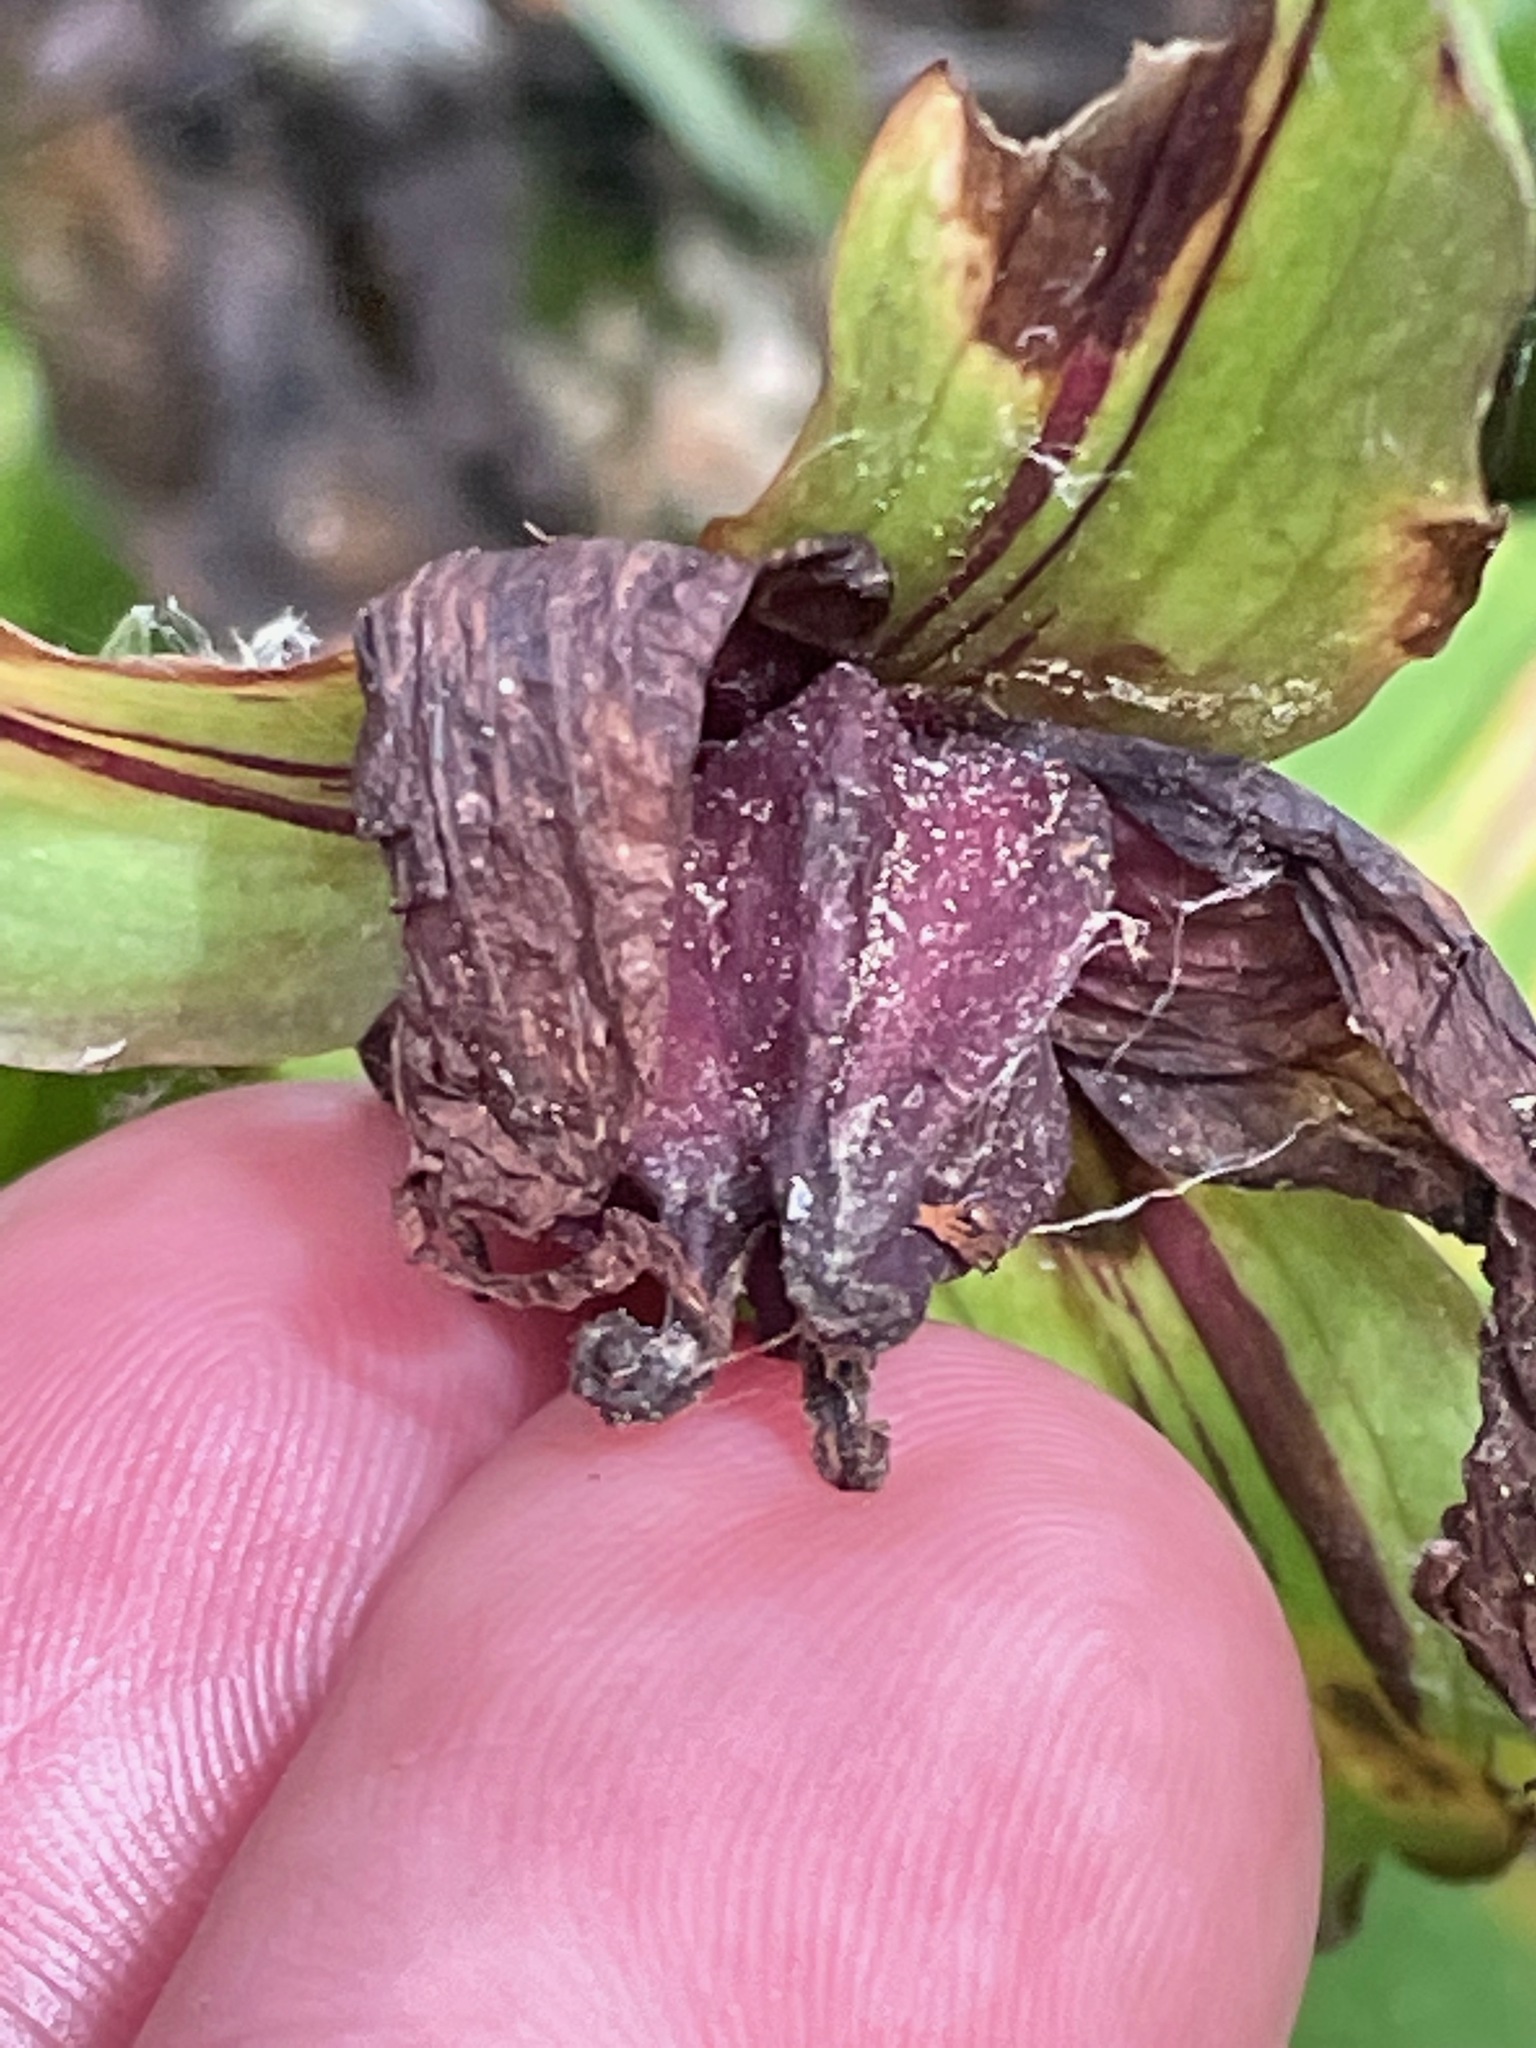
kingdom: Plantae
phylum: Tracheophyta
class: Liliopsida
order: Liliales
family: Melanthiaceae
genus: Trillium
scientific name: Trillium erectum
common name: Purple trillium
